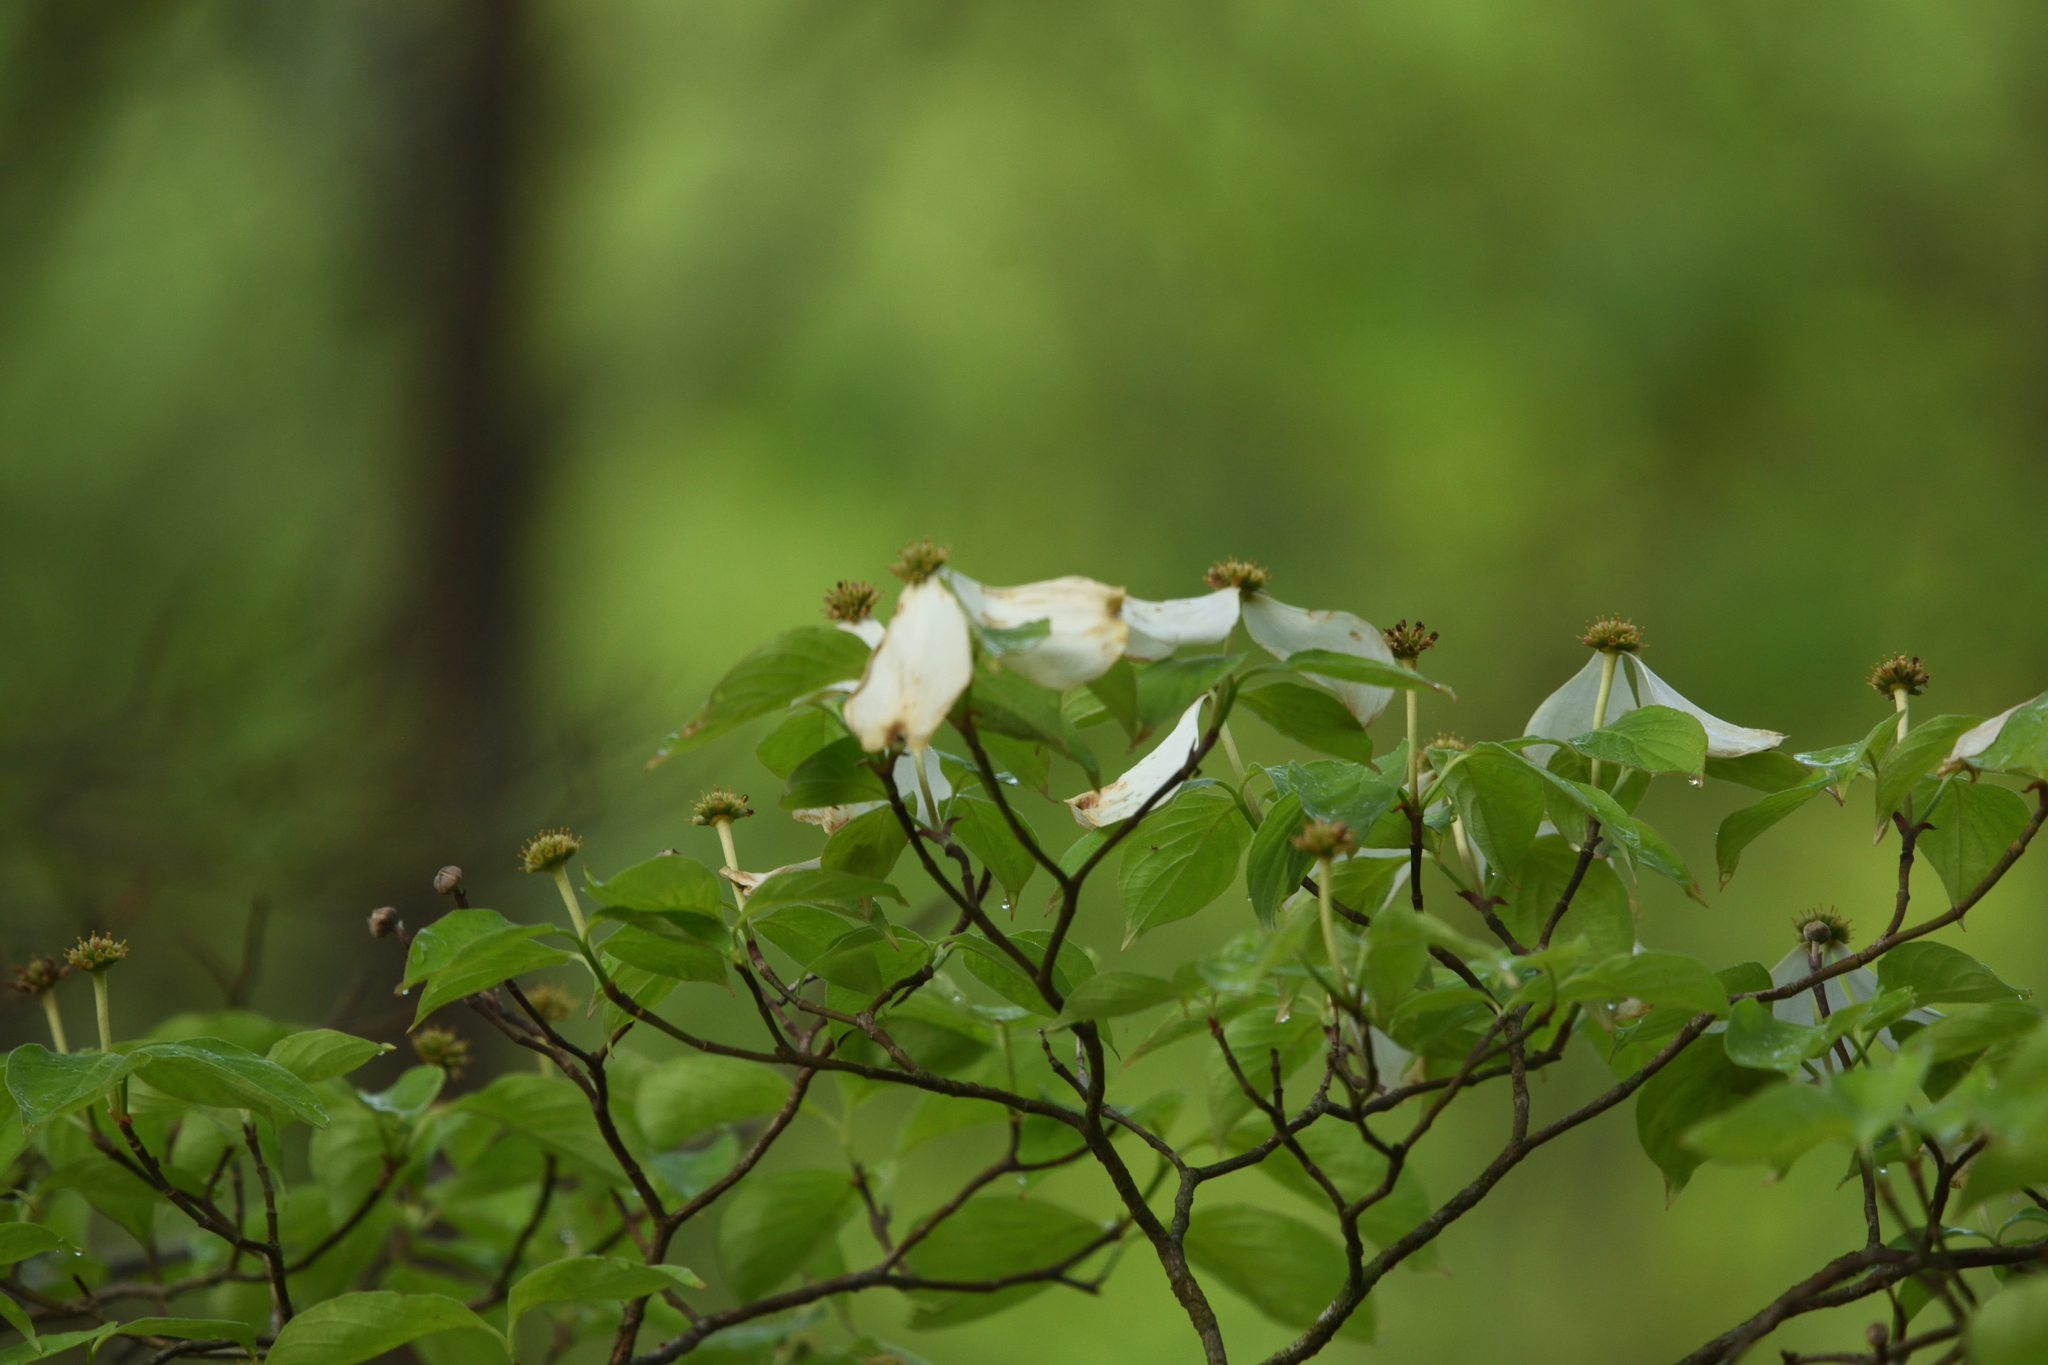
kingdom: Plantae
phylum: Tracheophyta
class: Magnoliopsida
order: Cornales
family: Cornaceae
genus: Cornus
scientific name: Cornus florida
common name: Flowering dogwood
